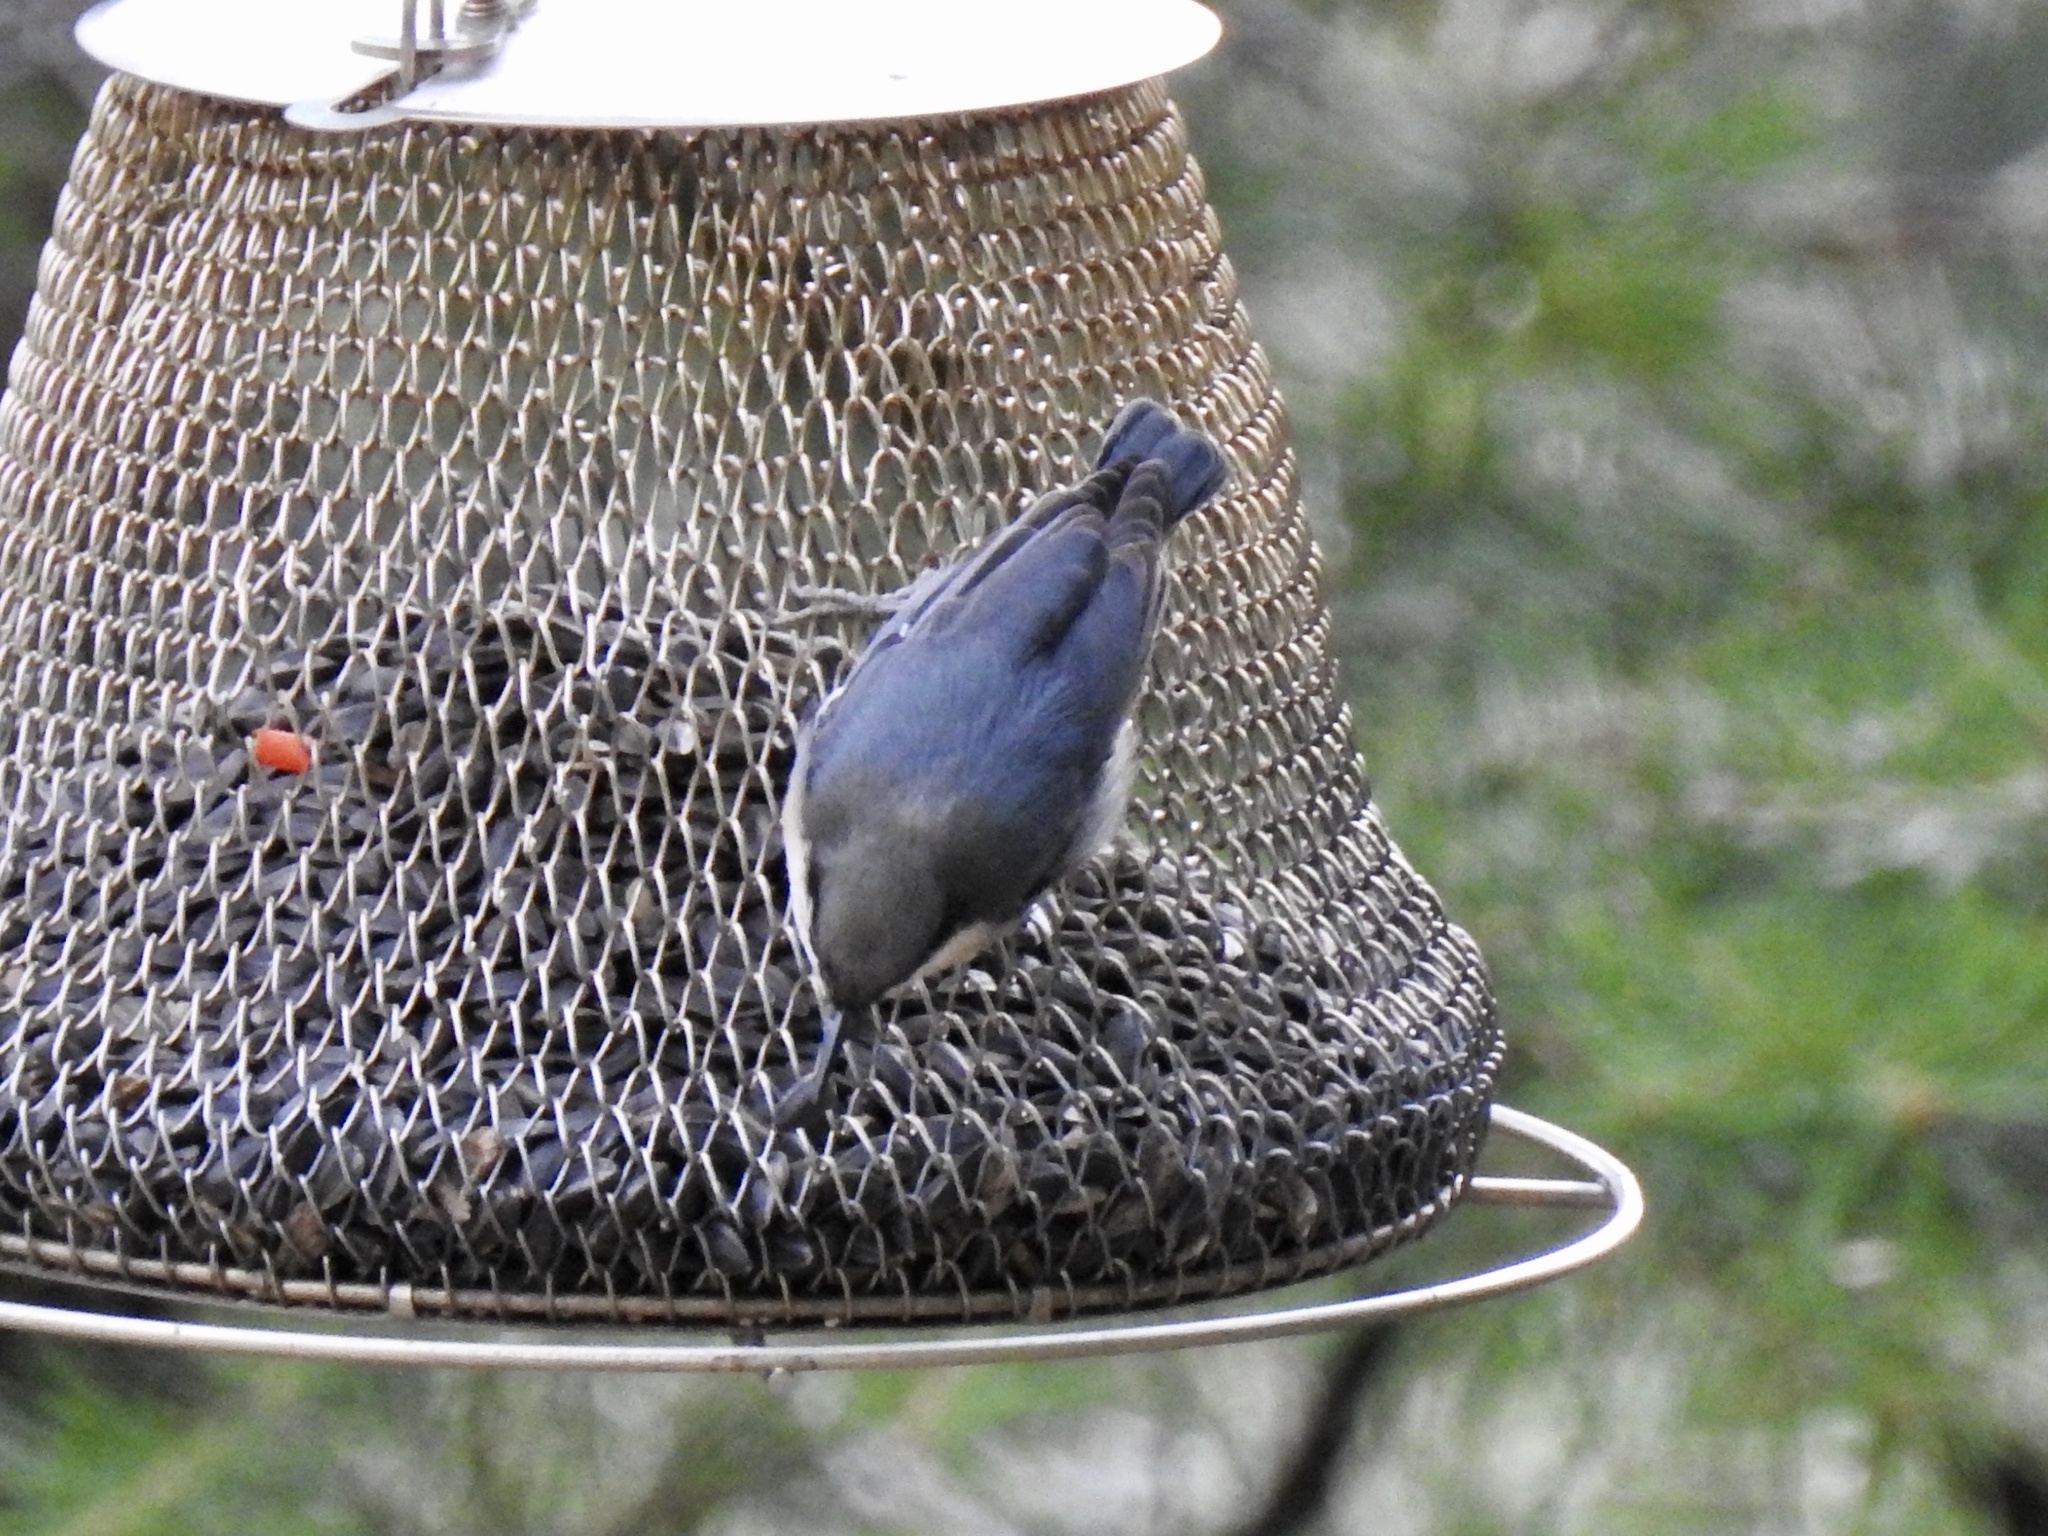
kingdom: Animalia
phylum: Chordata
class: Aves
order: Passeriformes
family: Sittidae
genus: Sitta
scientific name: Sitta pygmaea
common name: Pygmy nuthatch
